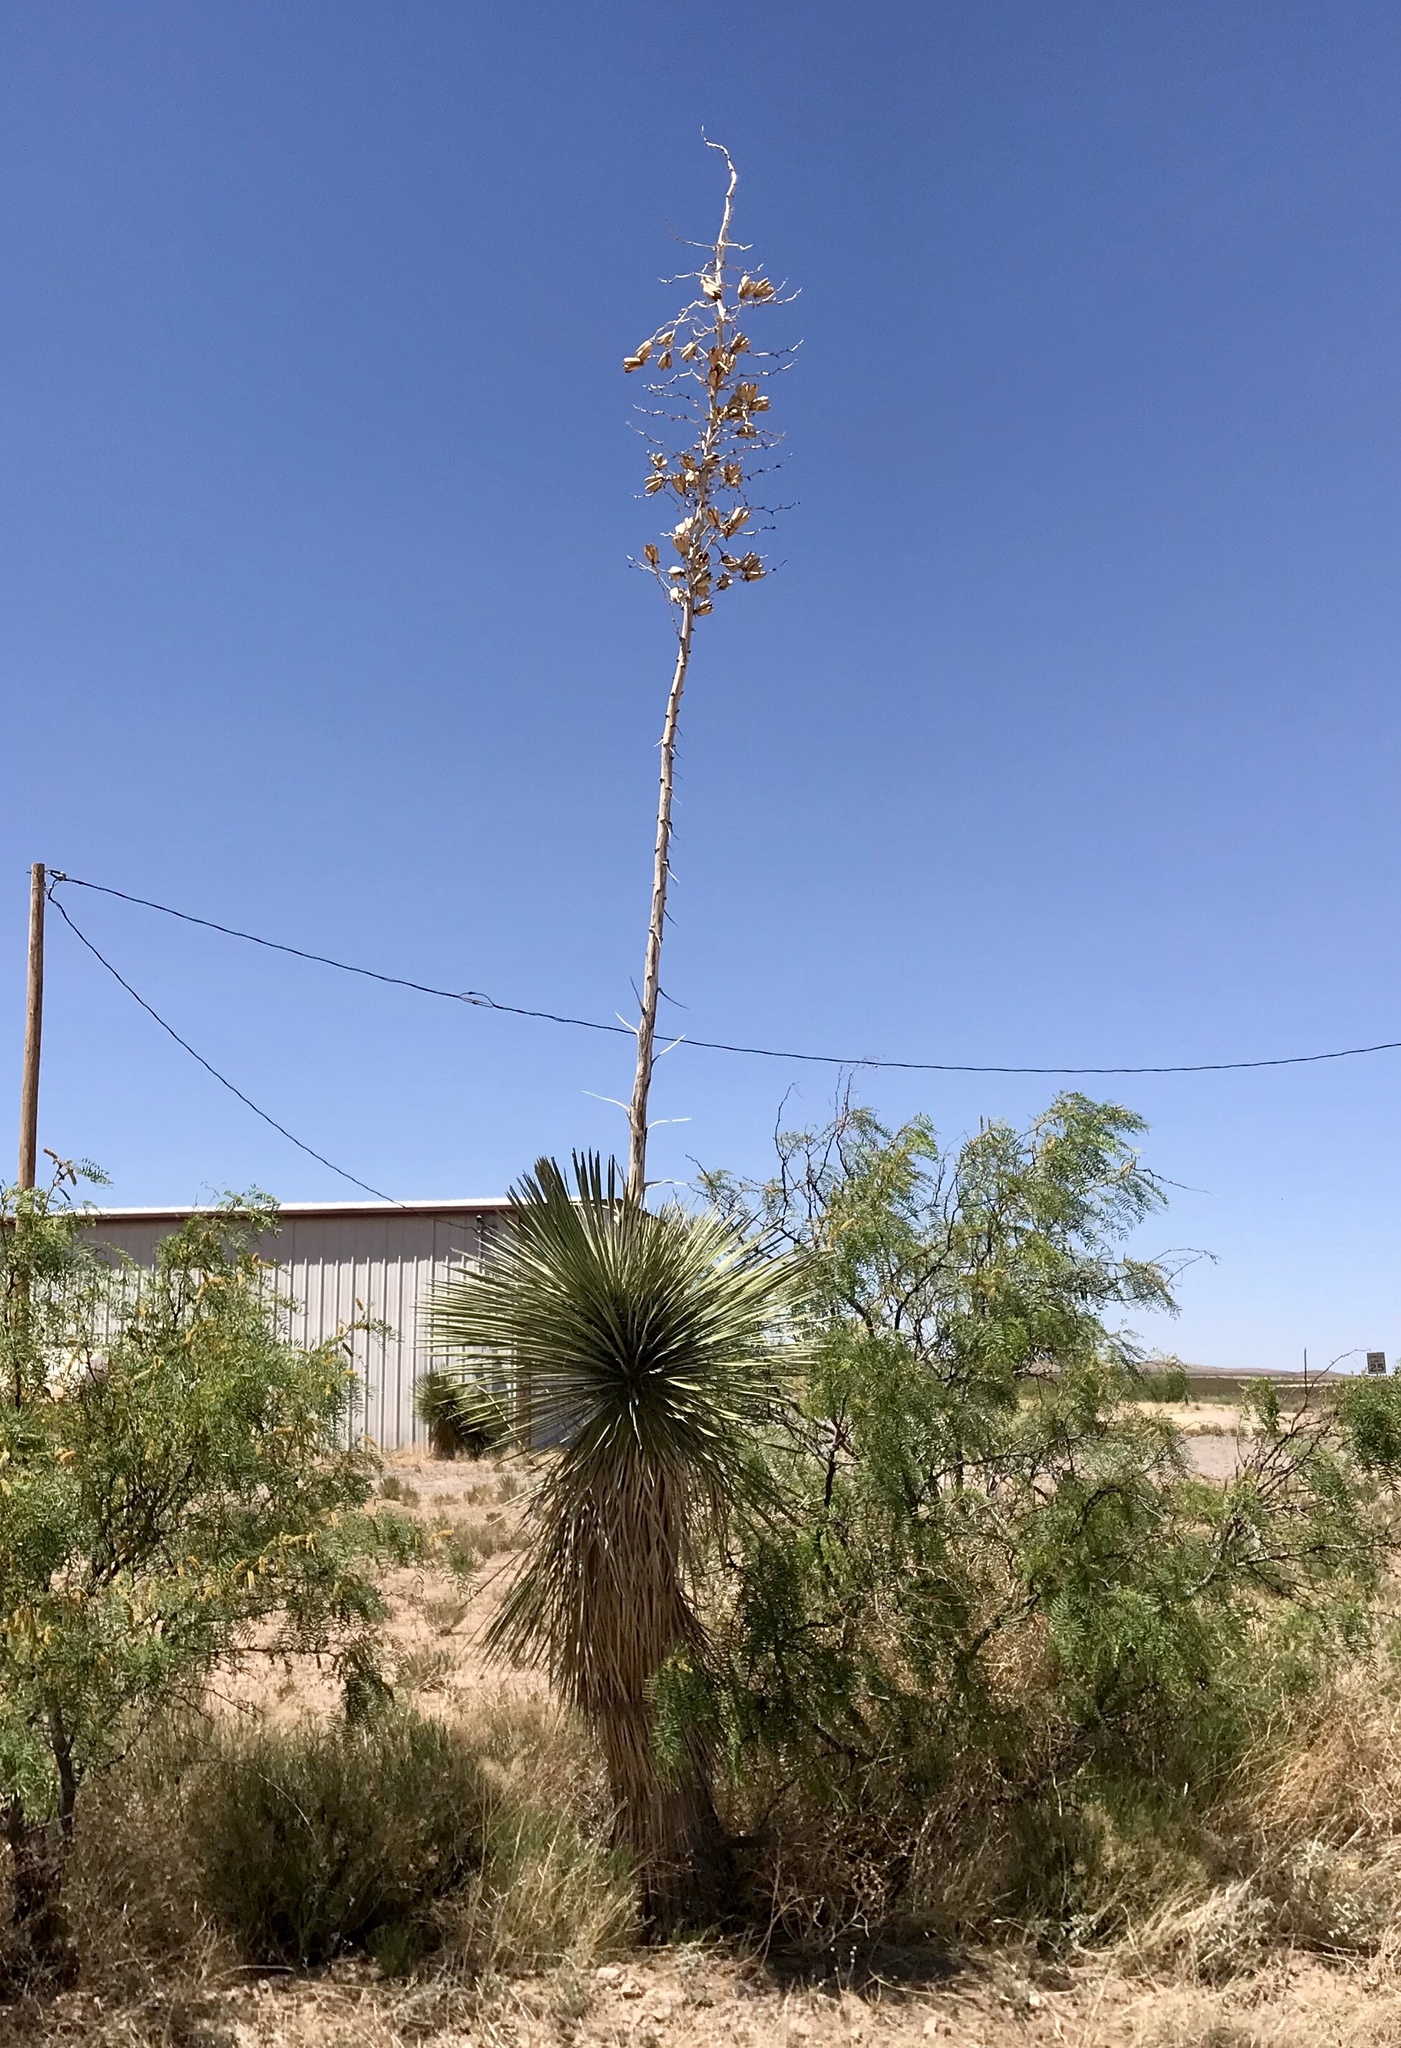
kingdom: Plantae
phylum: Tracheophyta
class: Liliopsida
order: Asparagales
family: Asparagaceae
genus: Yucca
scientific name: Yucca elata
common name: Palmella
